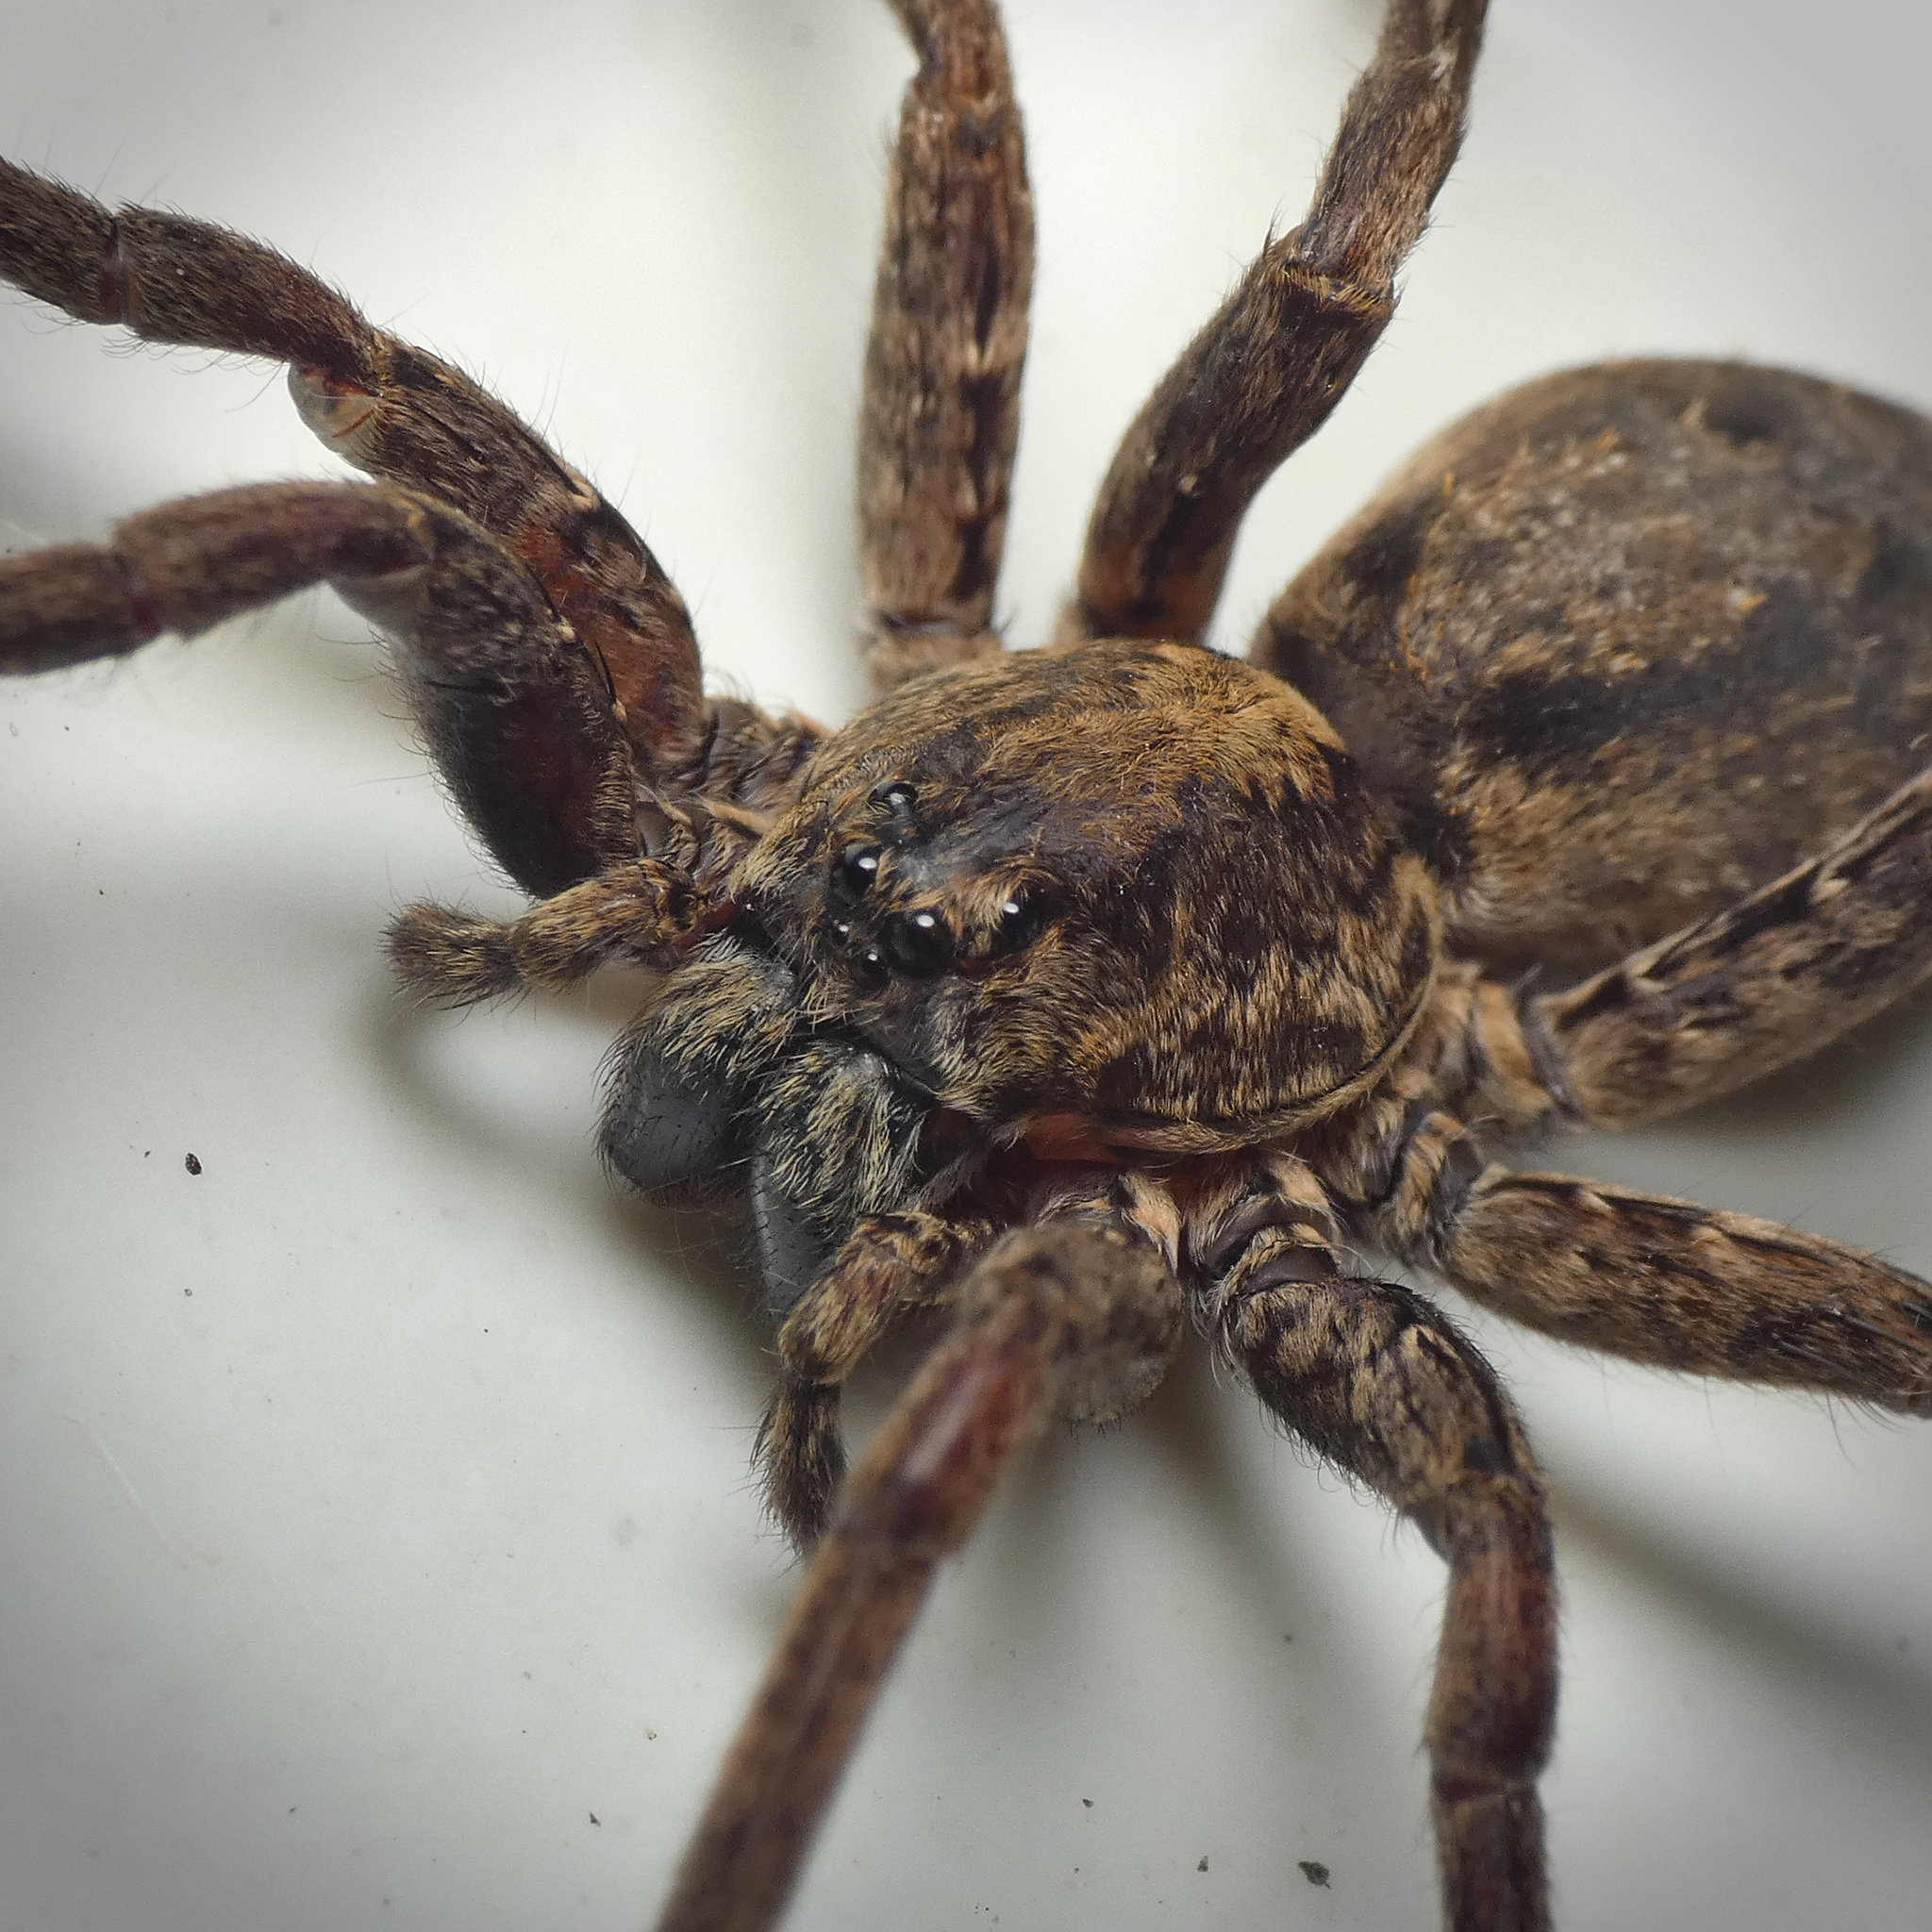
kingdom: Animalia
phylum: Arthropoda
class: Arachnida
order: Araneae
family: Ctenidae
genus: Ctenus
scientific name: Ctenus gulosus
